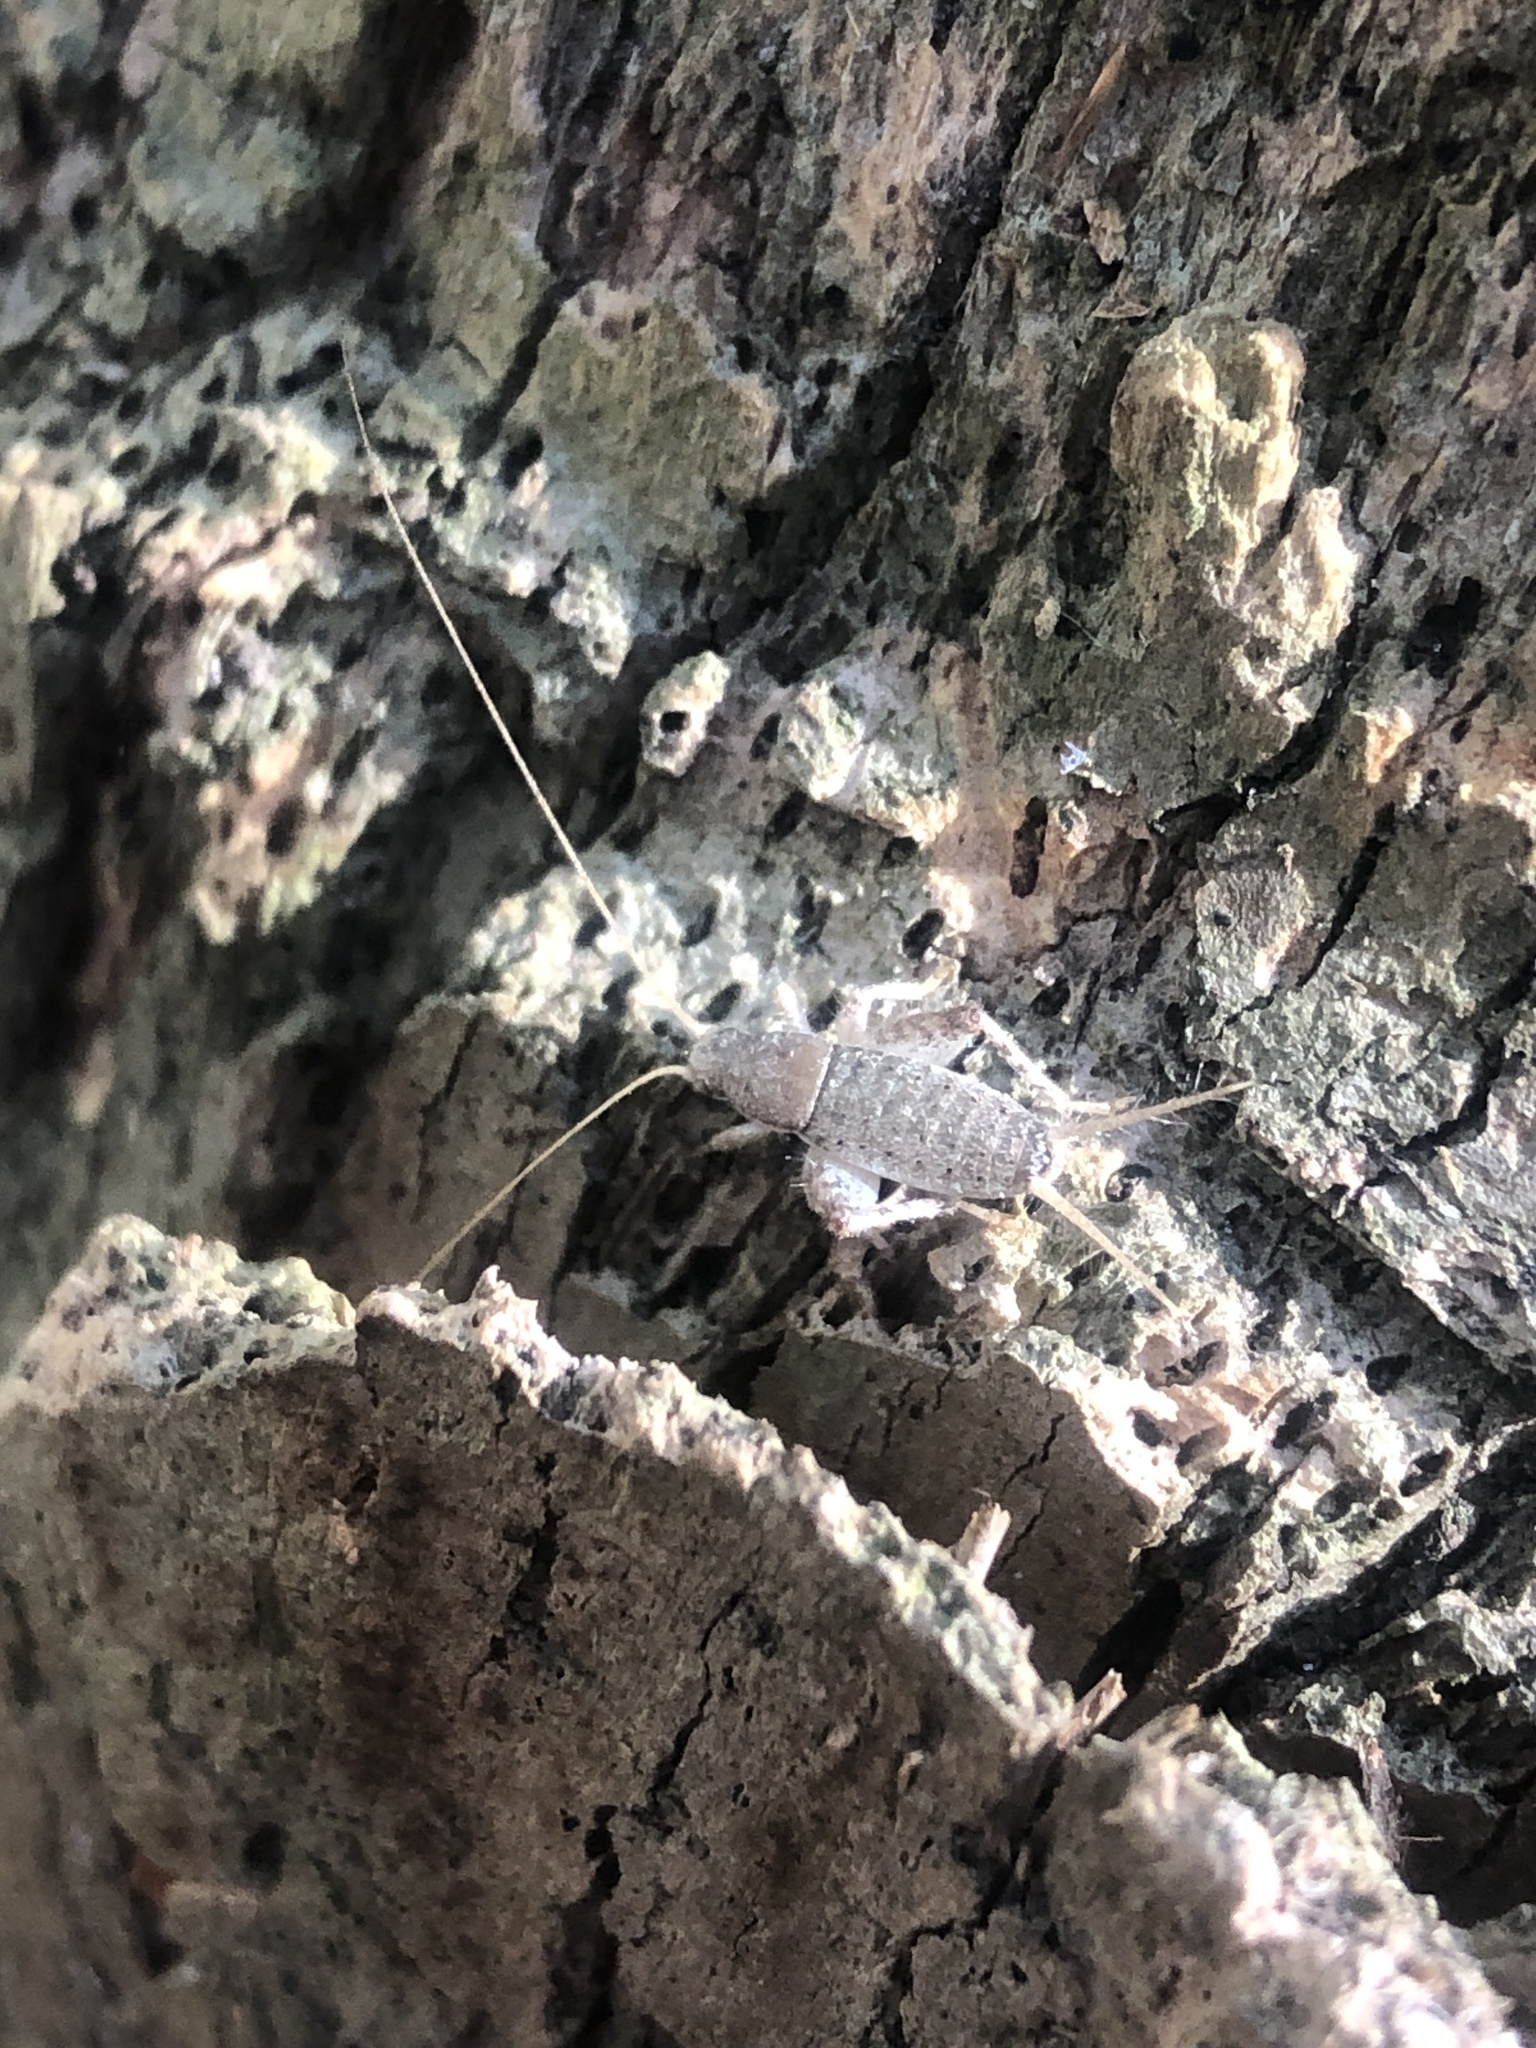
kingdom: Animalia
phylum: Arthropoda
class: Insecta
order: Orthoptera
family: Mogoplistidae
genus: Cycloptilum
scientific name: Cycloptilum kelainopum
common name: Black-faced scaly cricket
